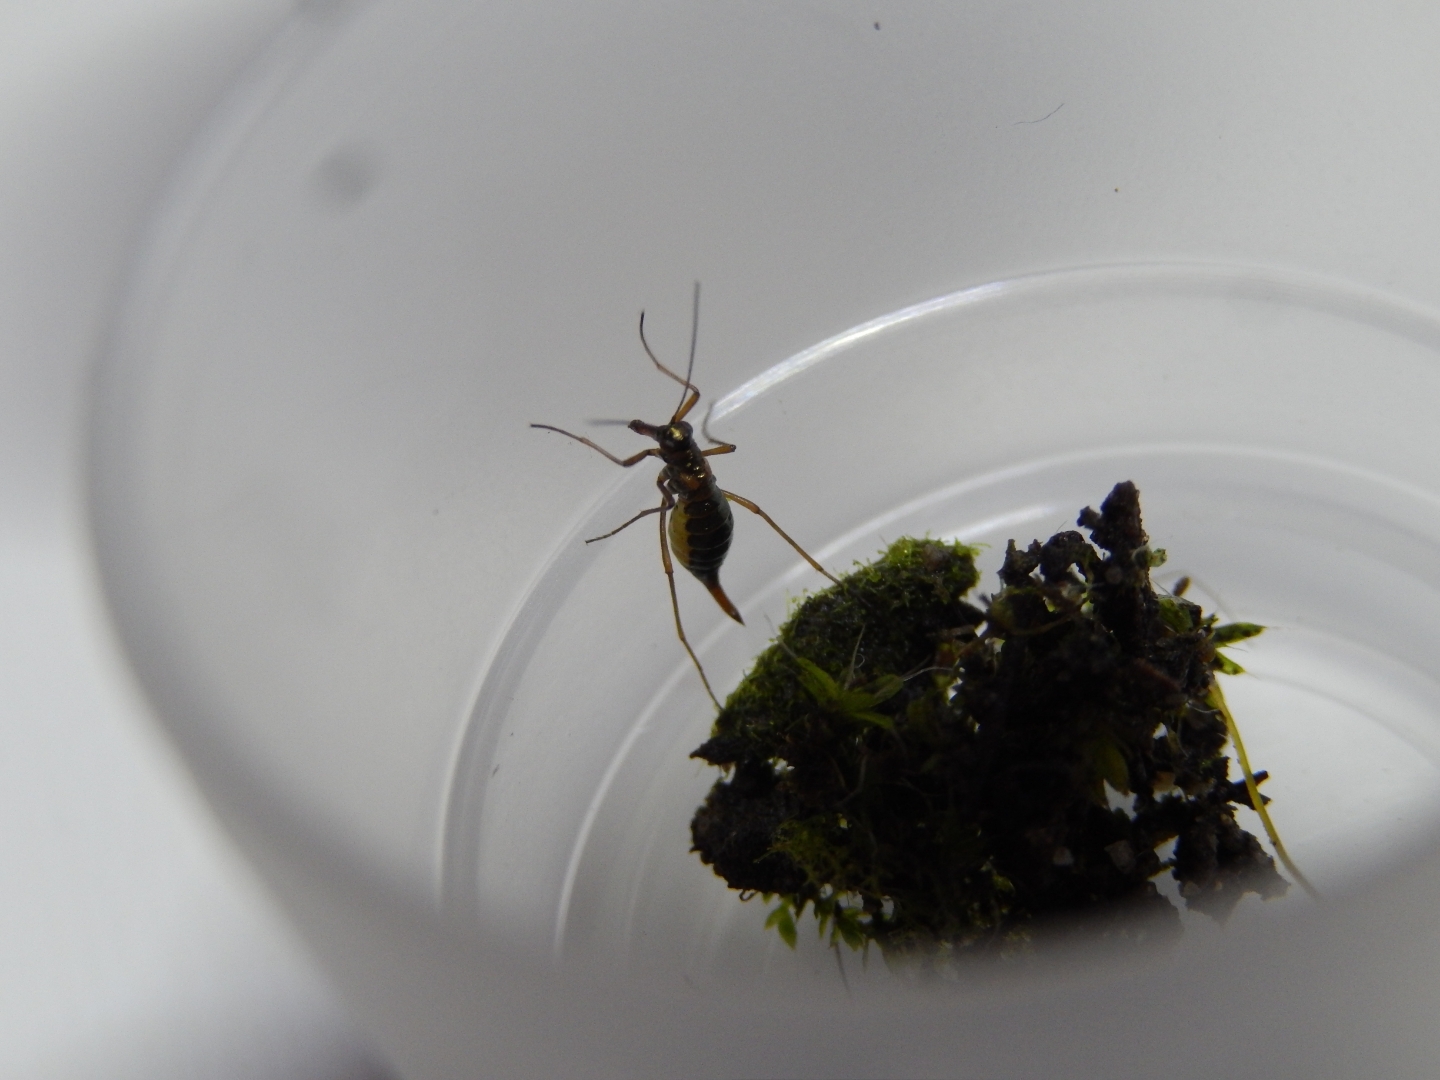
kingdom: Animalia
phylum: Arthropoda
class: Insecta
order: Mecoptera
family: Boreidae
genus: Boreus
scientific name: Boreus westwoodi
